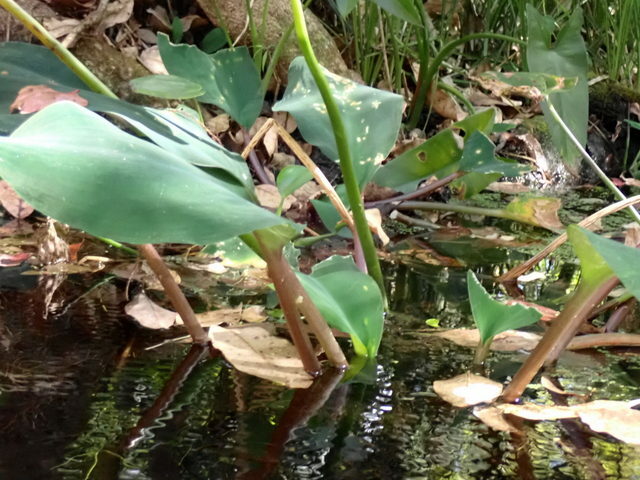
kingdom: Plantae
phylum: Tracheophyta
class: Liliopsida
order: Alismatales
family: Araceae
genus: Orontium
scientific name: Orontium aquaticum
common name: Golden-club
